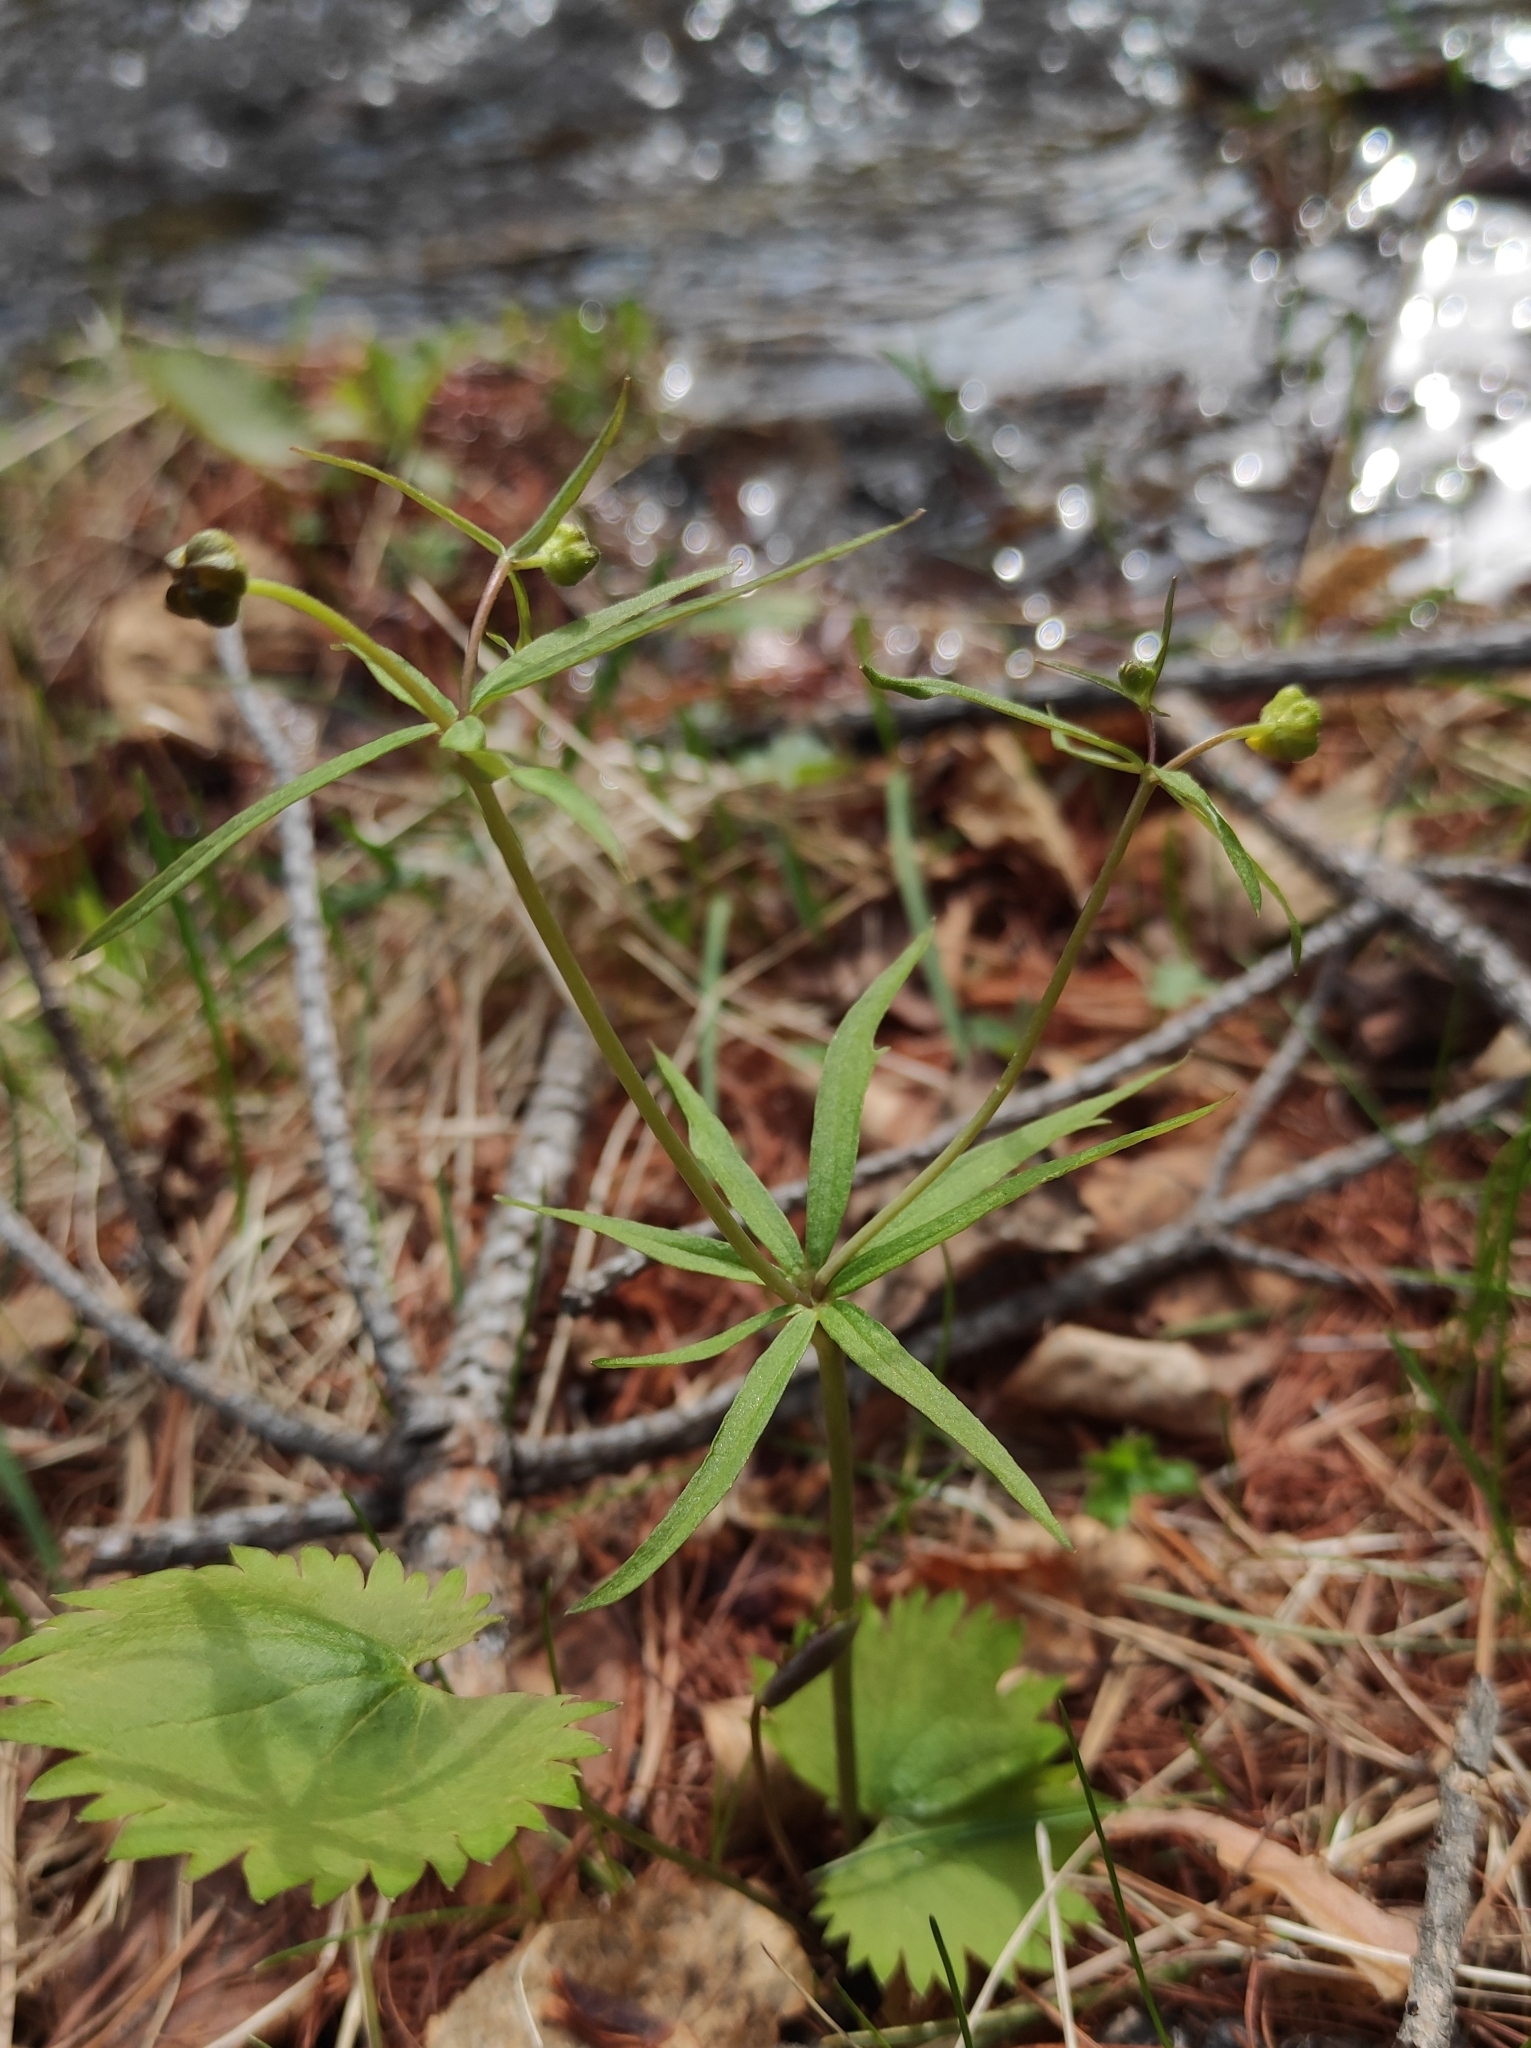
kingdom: Plantae
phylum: Tracheophyta
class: Magnoliopsida
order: Ranunculales
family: Ranunculaceae
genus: Ranunculus
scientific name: Ranunculus monophyllus
